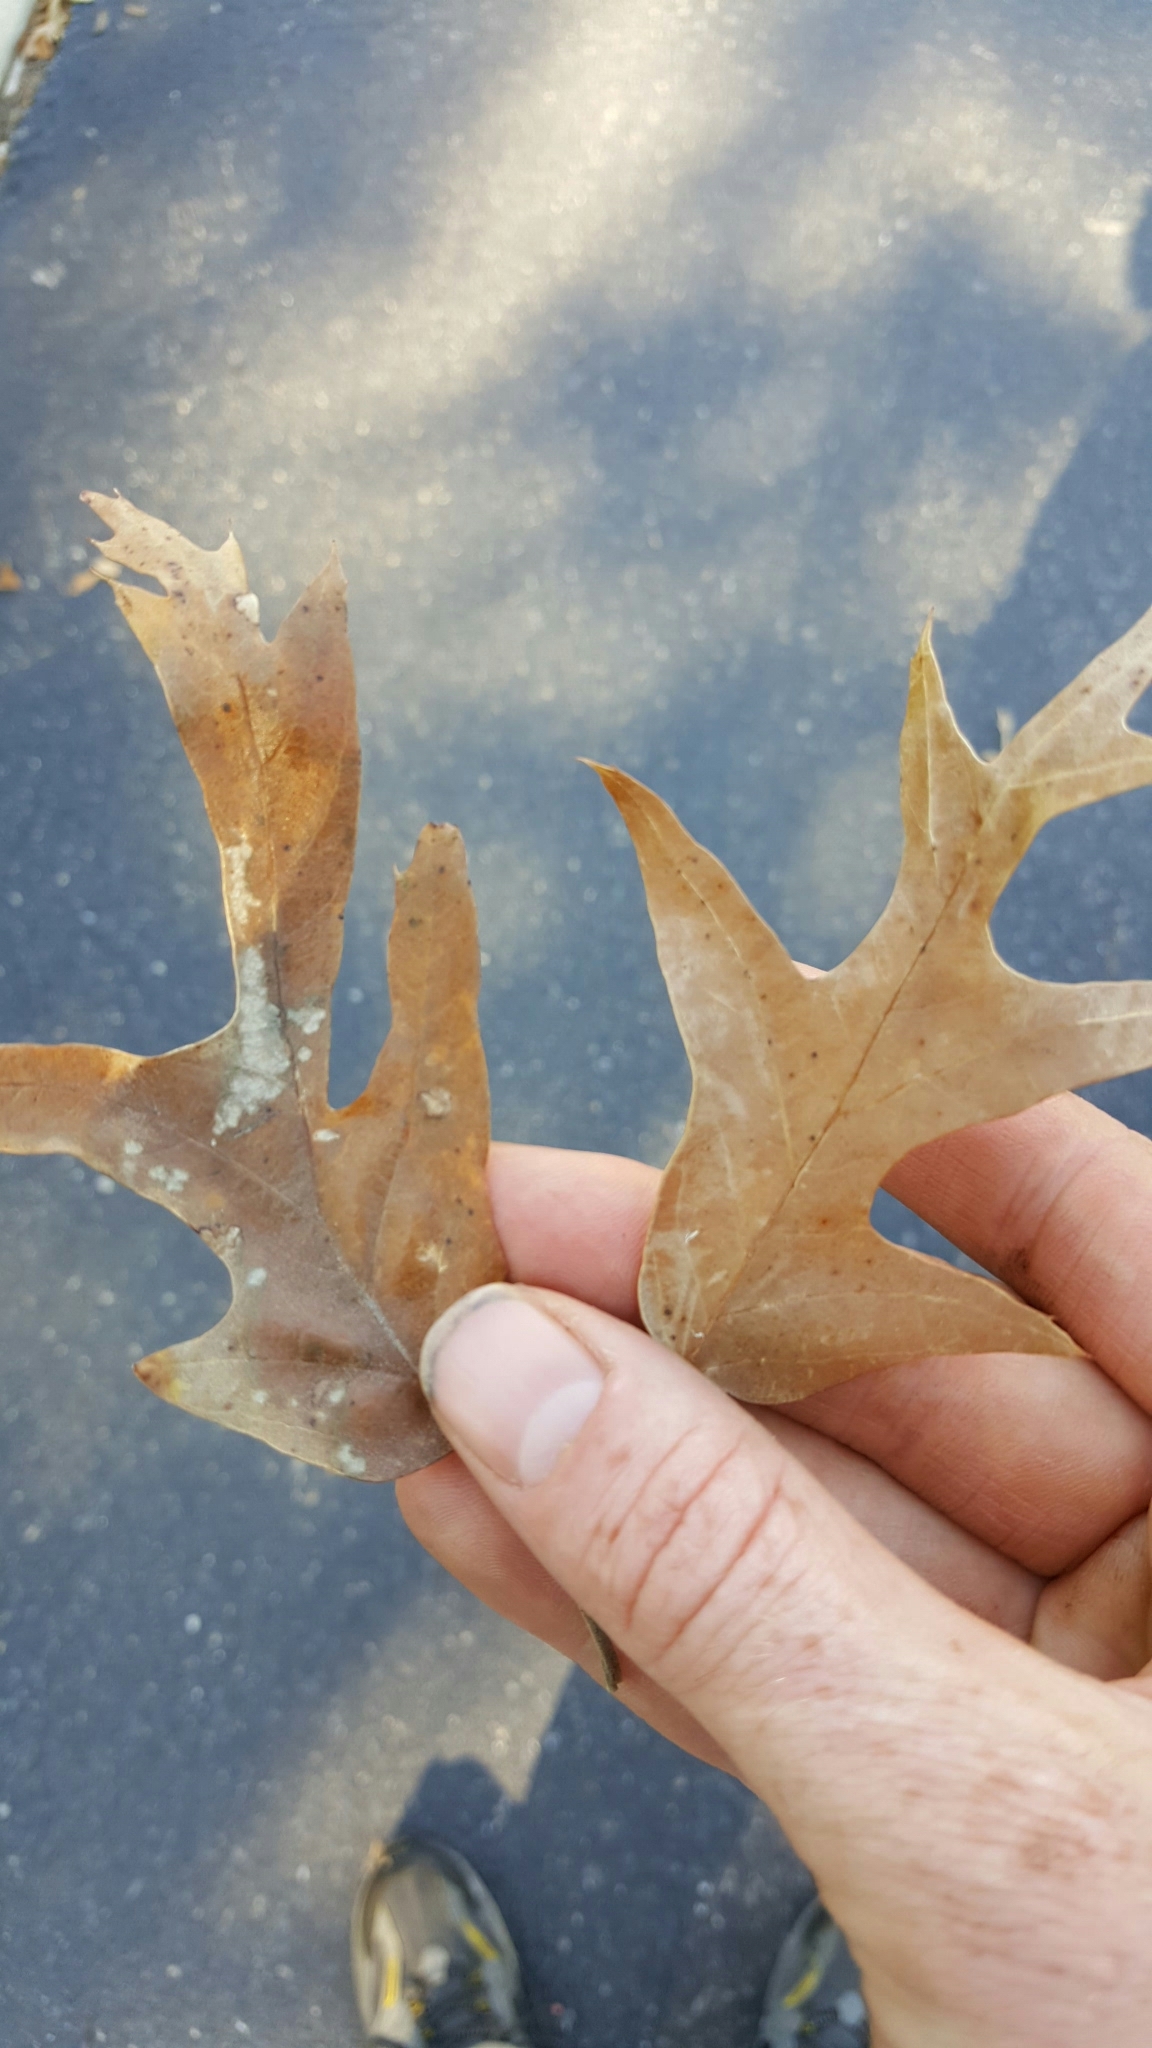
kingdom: Plantae
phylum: Tracheophyta
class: Magnoliopsida
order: Fagales
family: Fagaceae
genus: Quercus
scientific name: Quercus falcata
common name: Southern red oak
